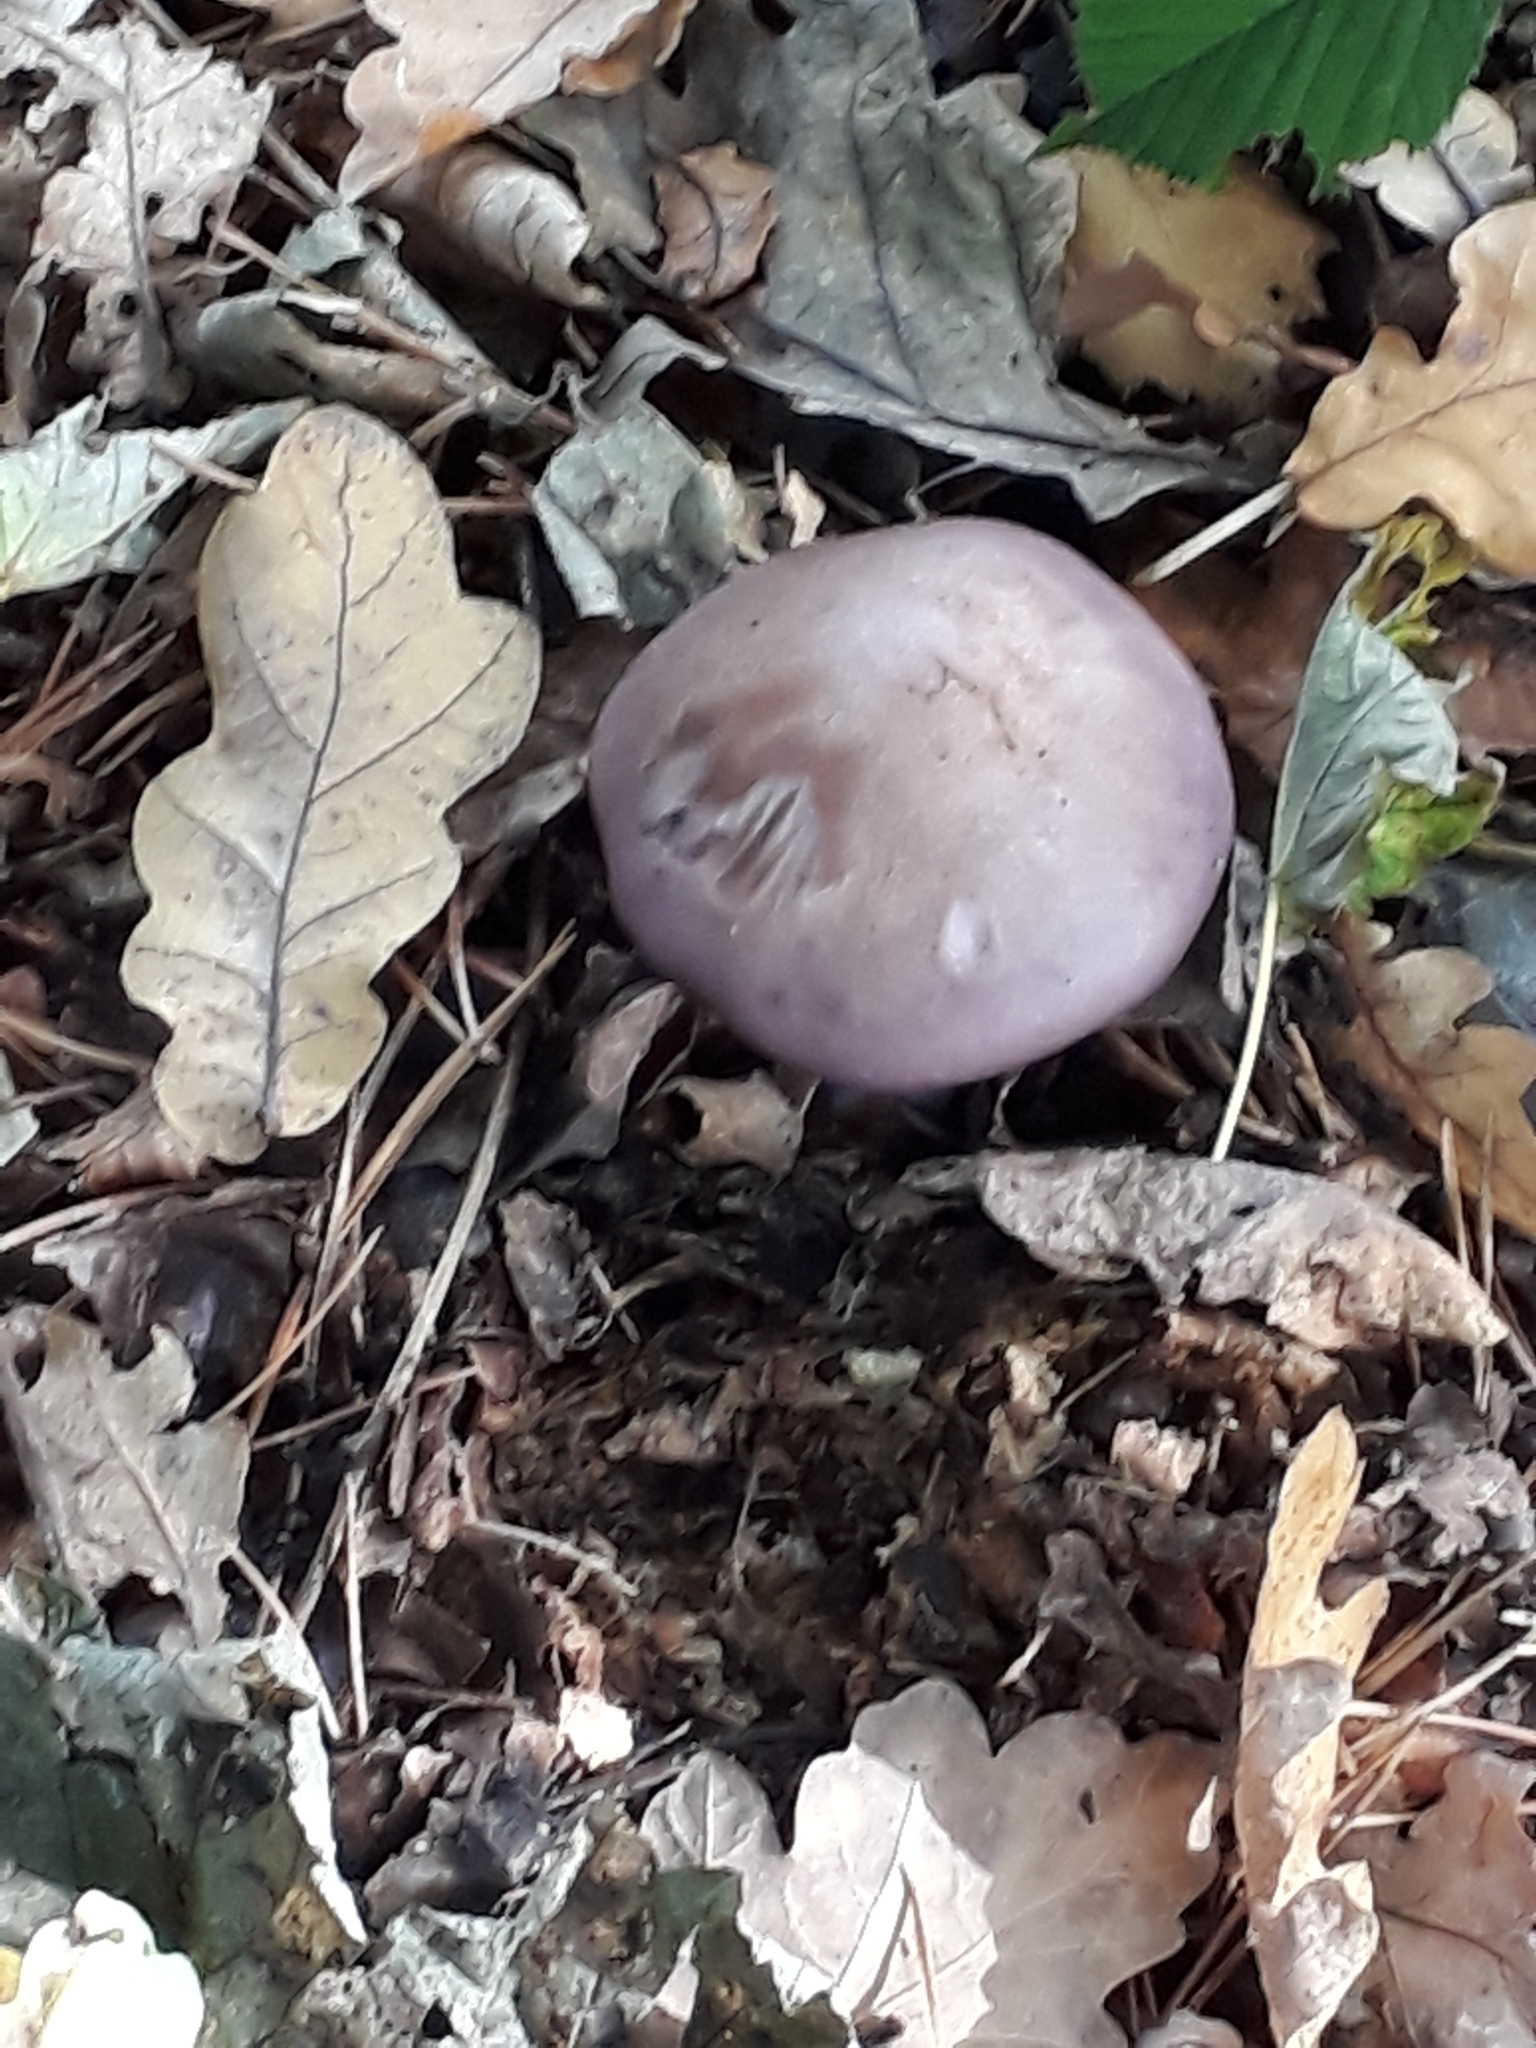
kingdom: Fungi
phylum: Basidiomycota
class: Agaricomycetes
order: Agaricales
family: Tricholomataceae
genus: Collybia
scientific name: Collybia
